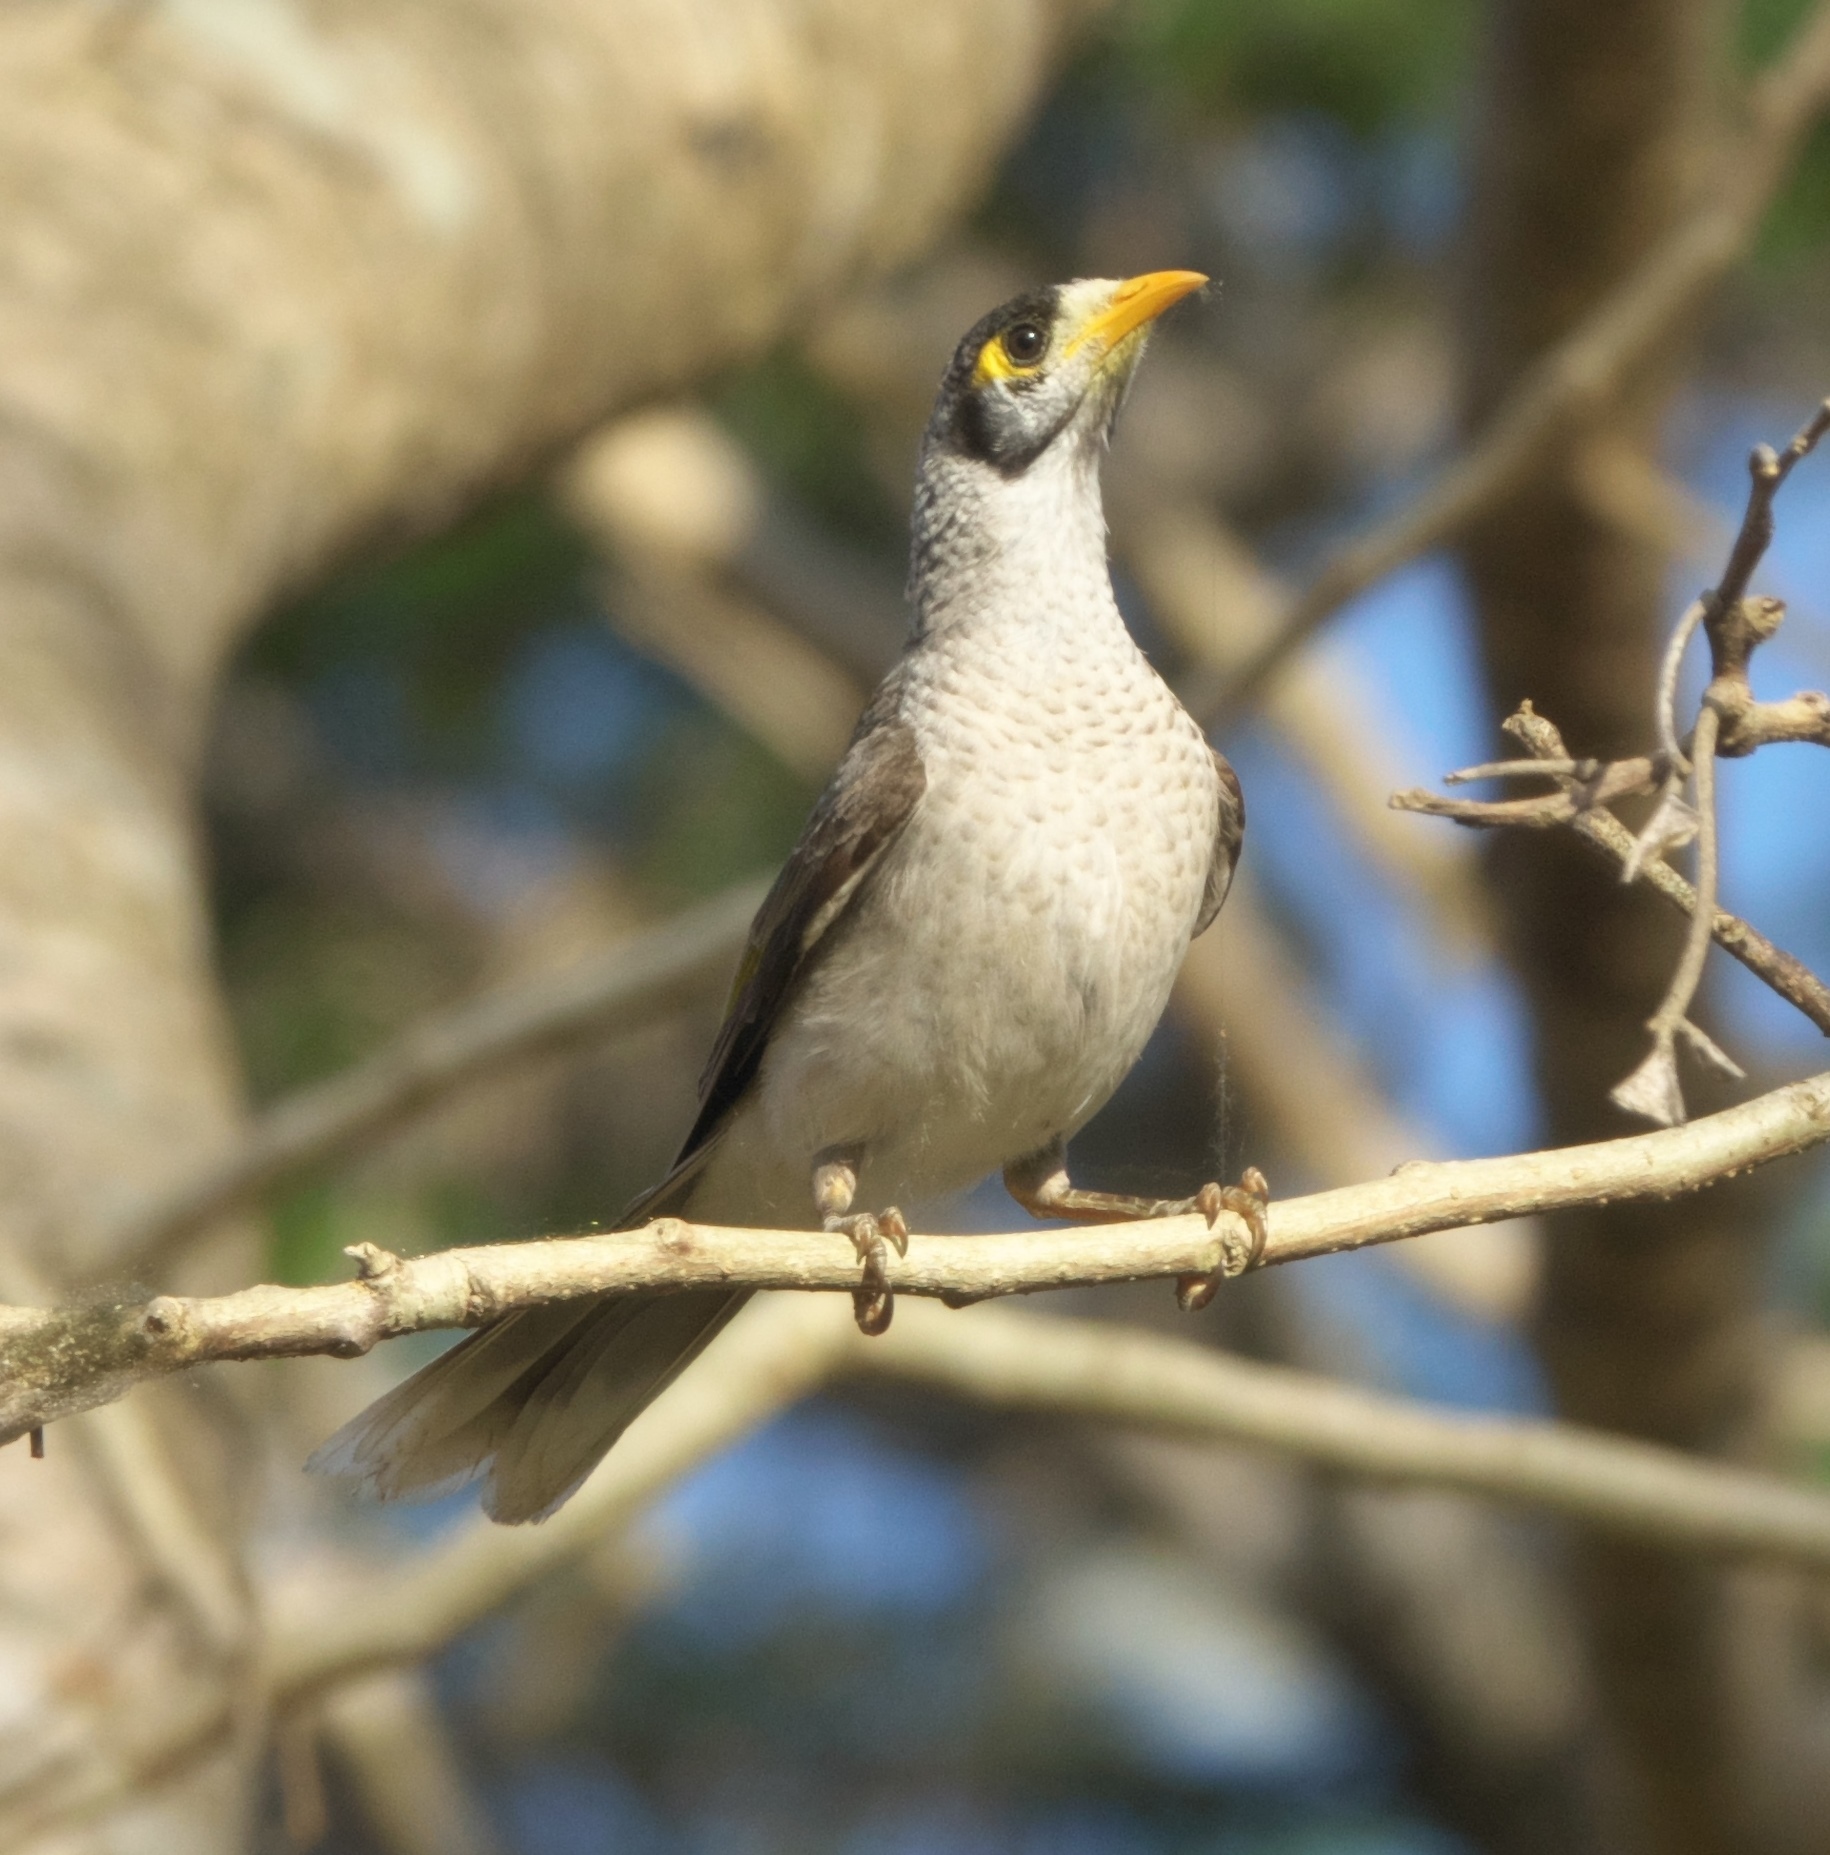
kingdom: Animalia
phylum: Chordata
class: Aves
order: Passeriformes
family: Meliphagidae
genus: Manorina
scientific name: Manorina melanocephala
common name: Noisy miner
